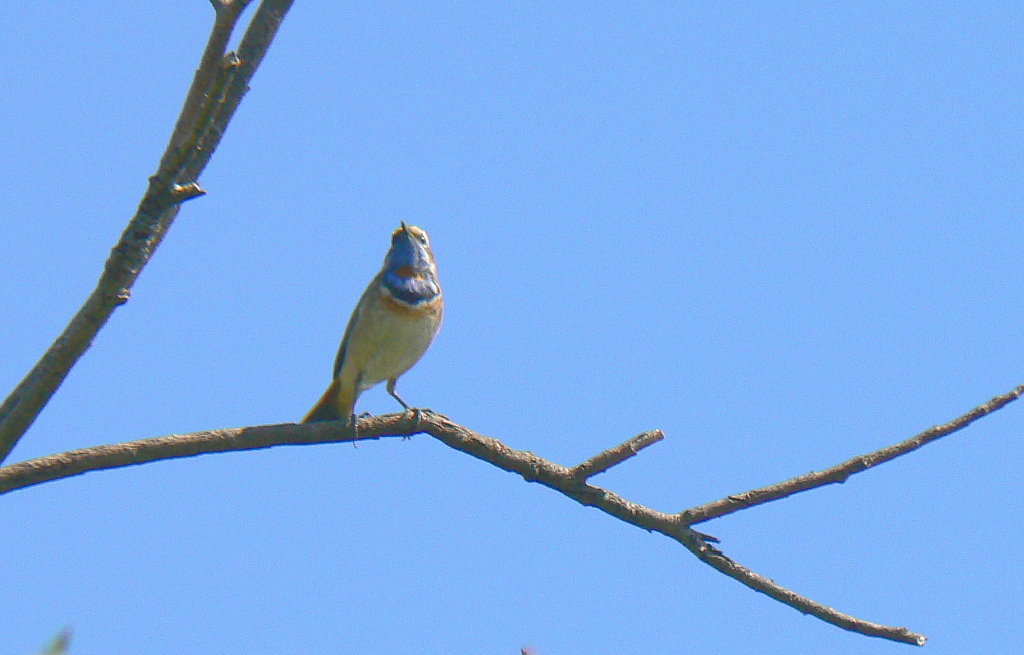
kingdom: Animalia
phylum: Chordata
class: Aves
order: Passeriformes
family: Muscicapidae
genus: Luscinia
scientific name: Luscinia svecica
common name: Bluethroat
